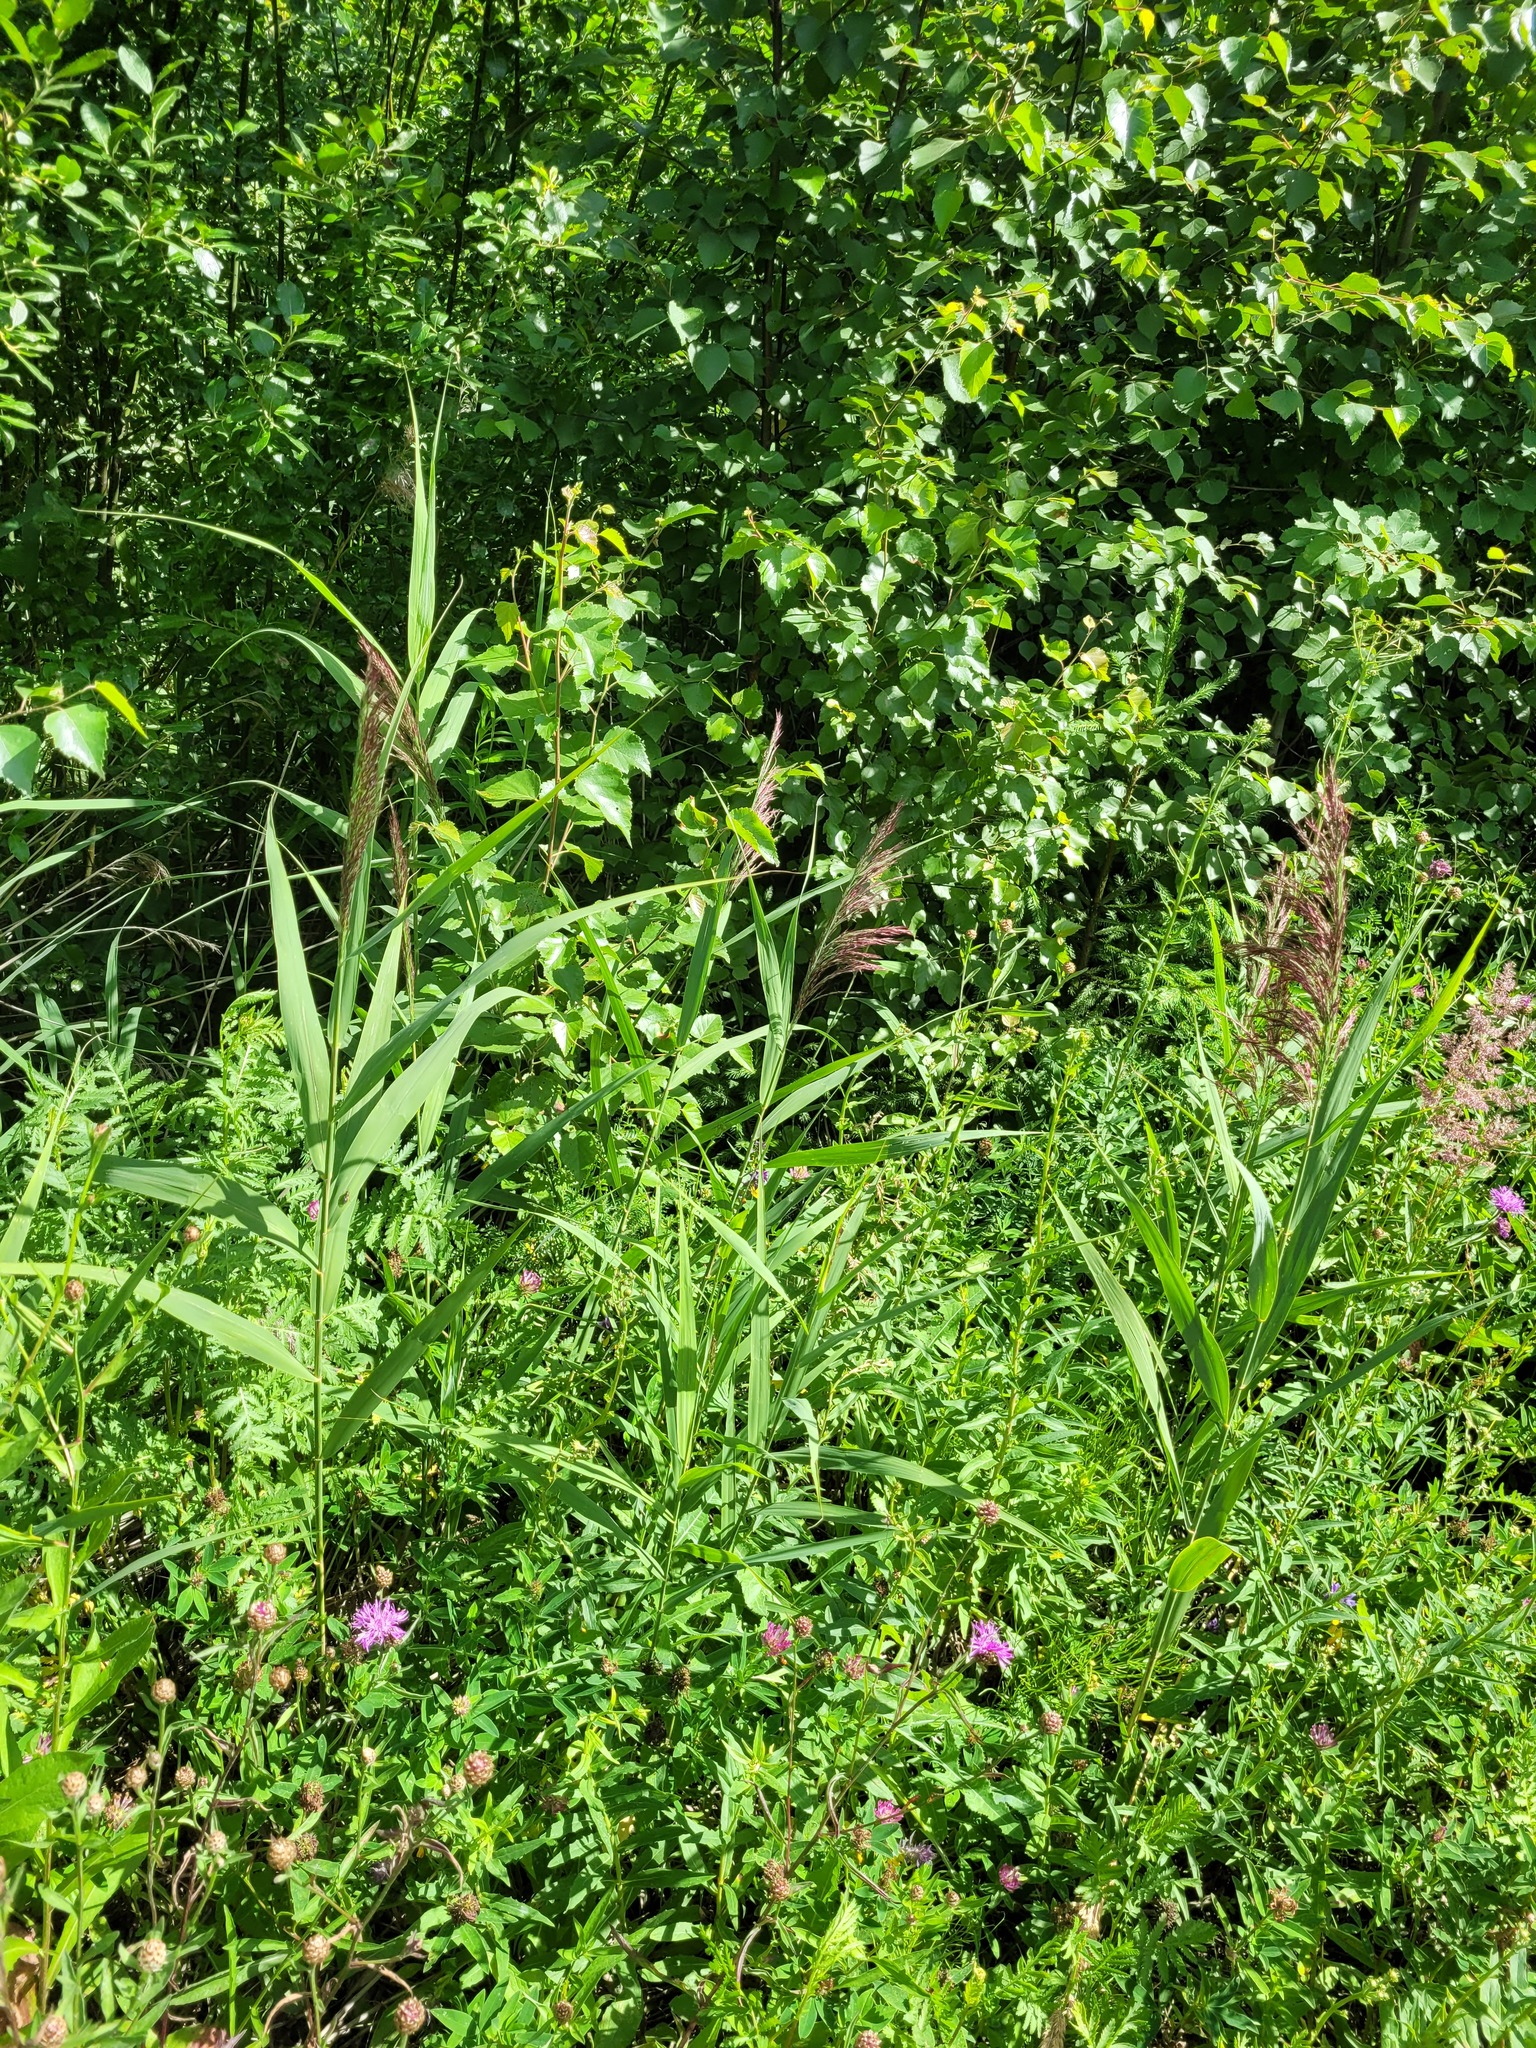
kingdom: Plantae
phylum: Tracheophyta
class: Liliopsida
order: Poales
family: Poaceae
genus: Phragmites
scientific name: Phragmites australis
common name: Common reed
